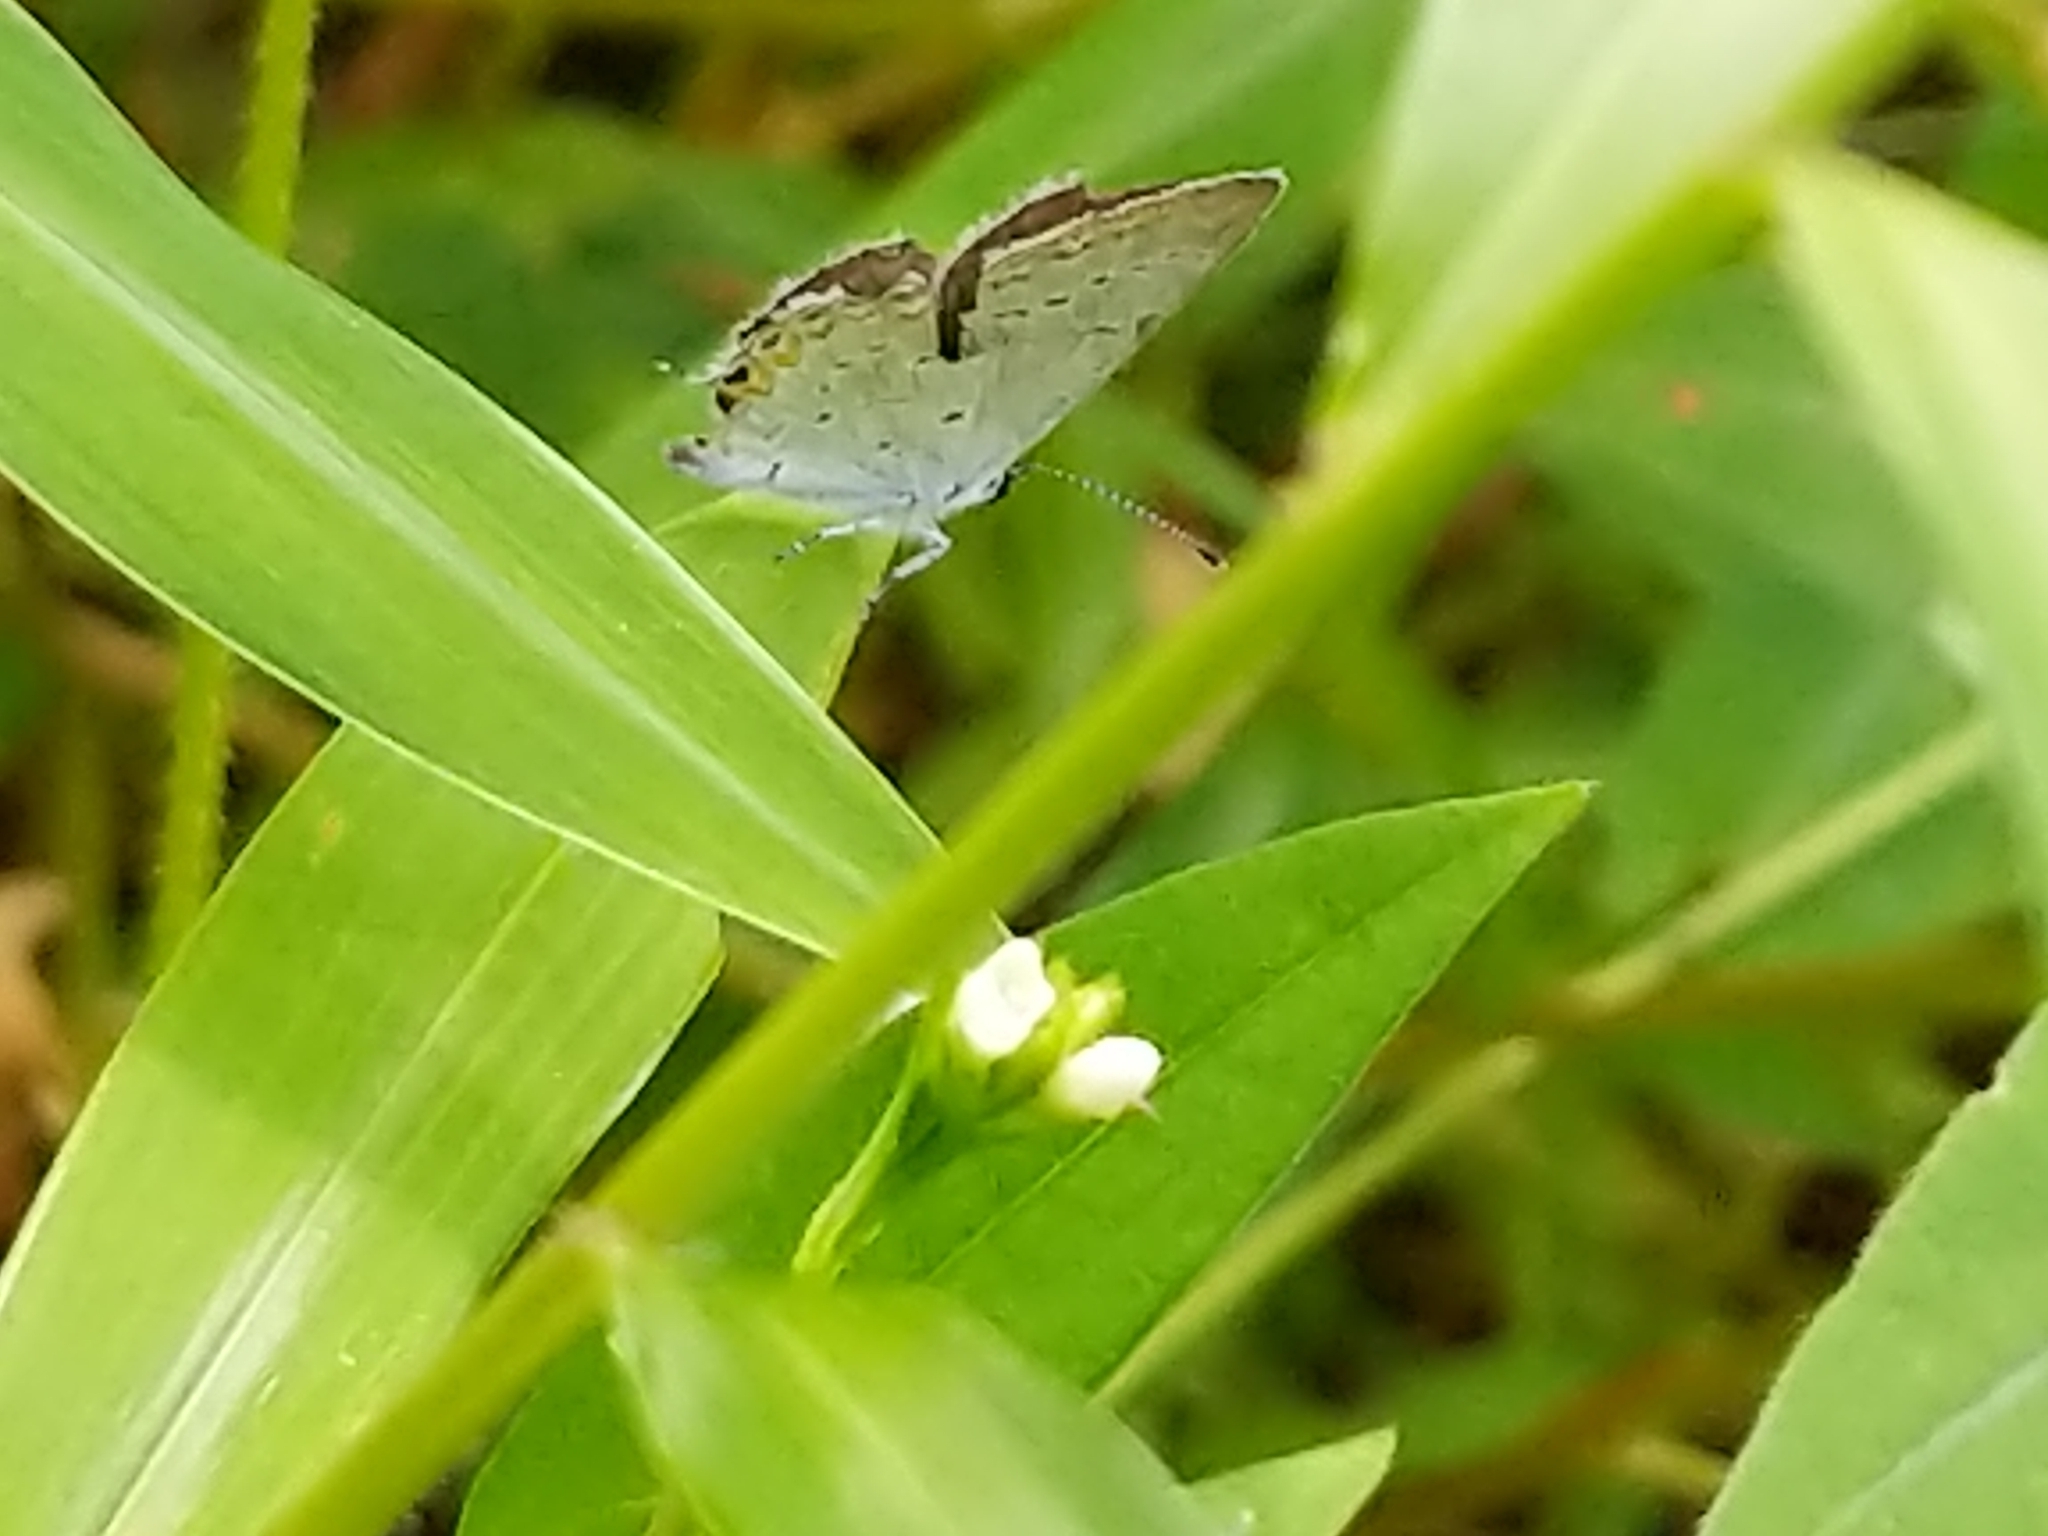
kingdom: Animalia
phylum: Arthropoda
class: Insecta
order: Lepidoptera
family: Lycaenidae
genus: Elkalyce
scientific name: Elkalyce comyntas
